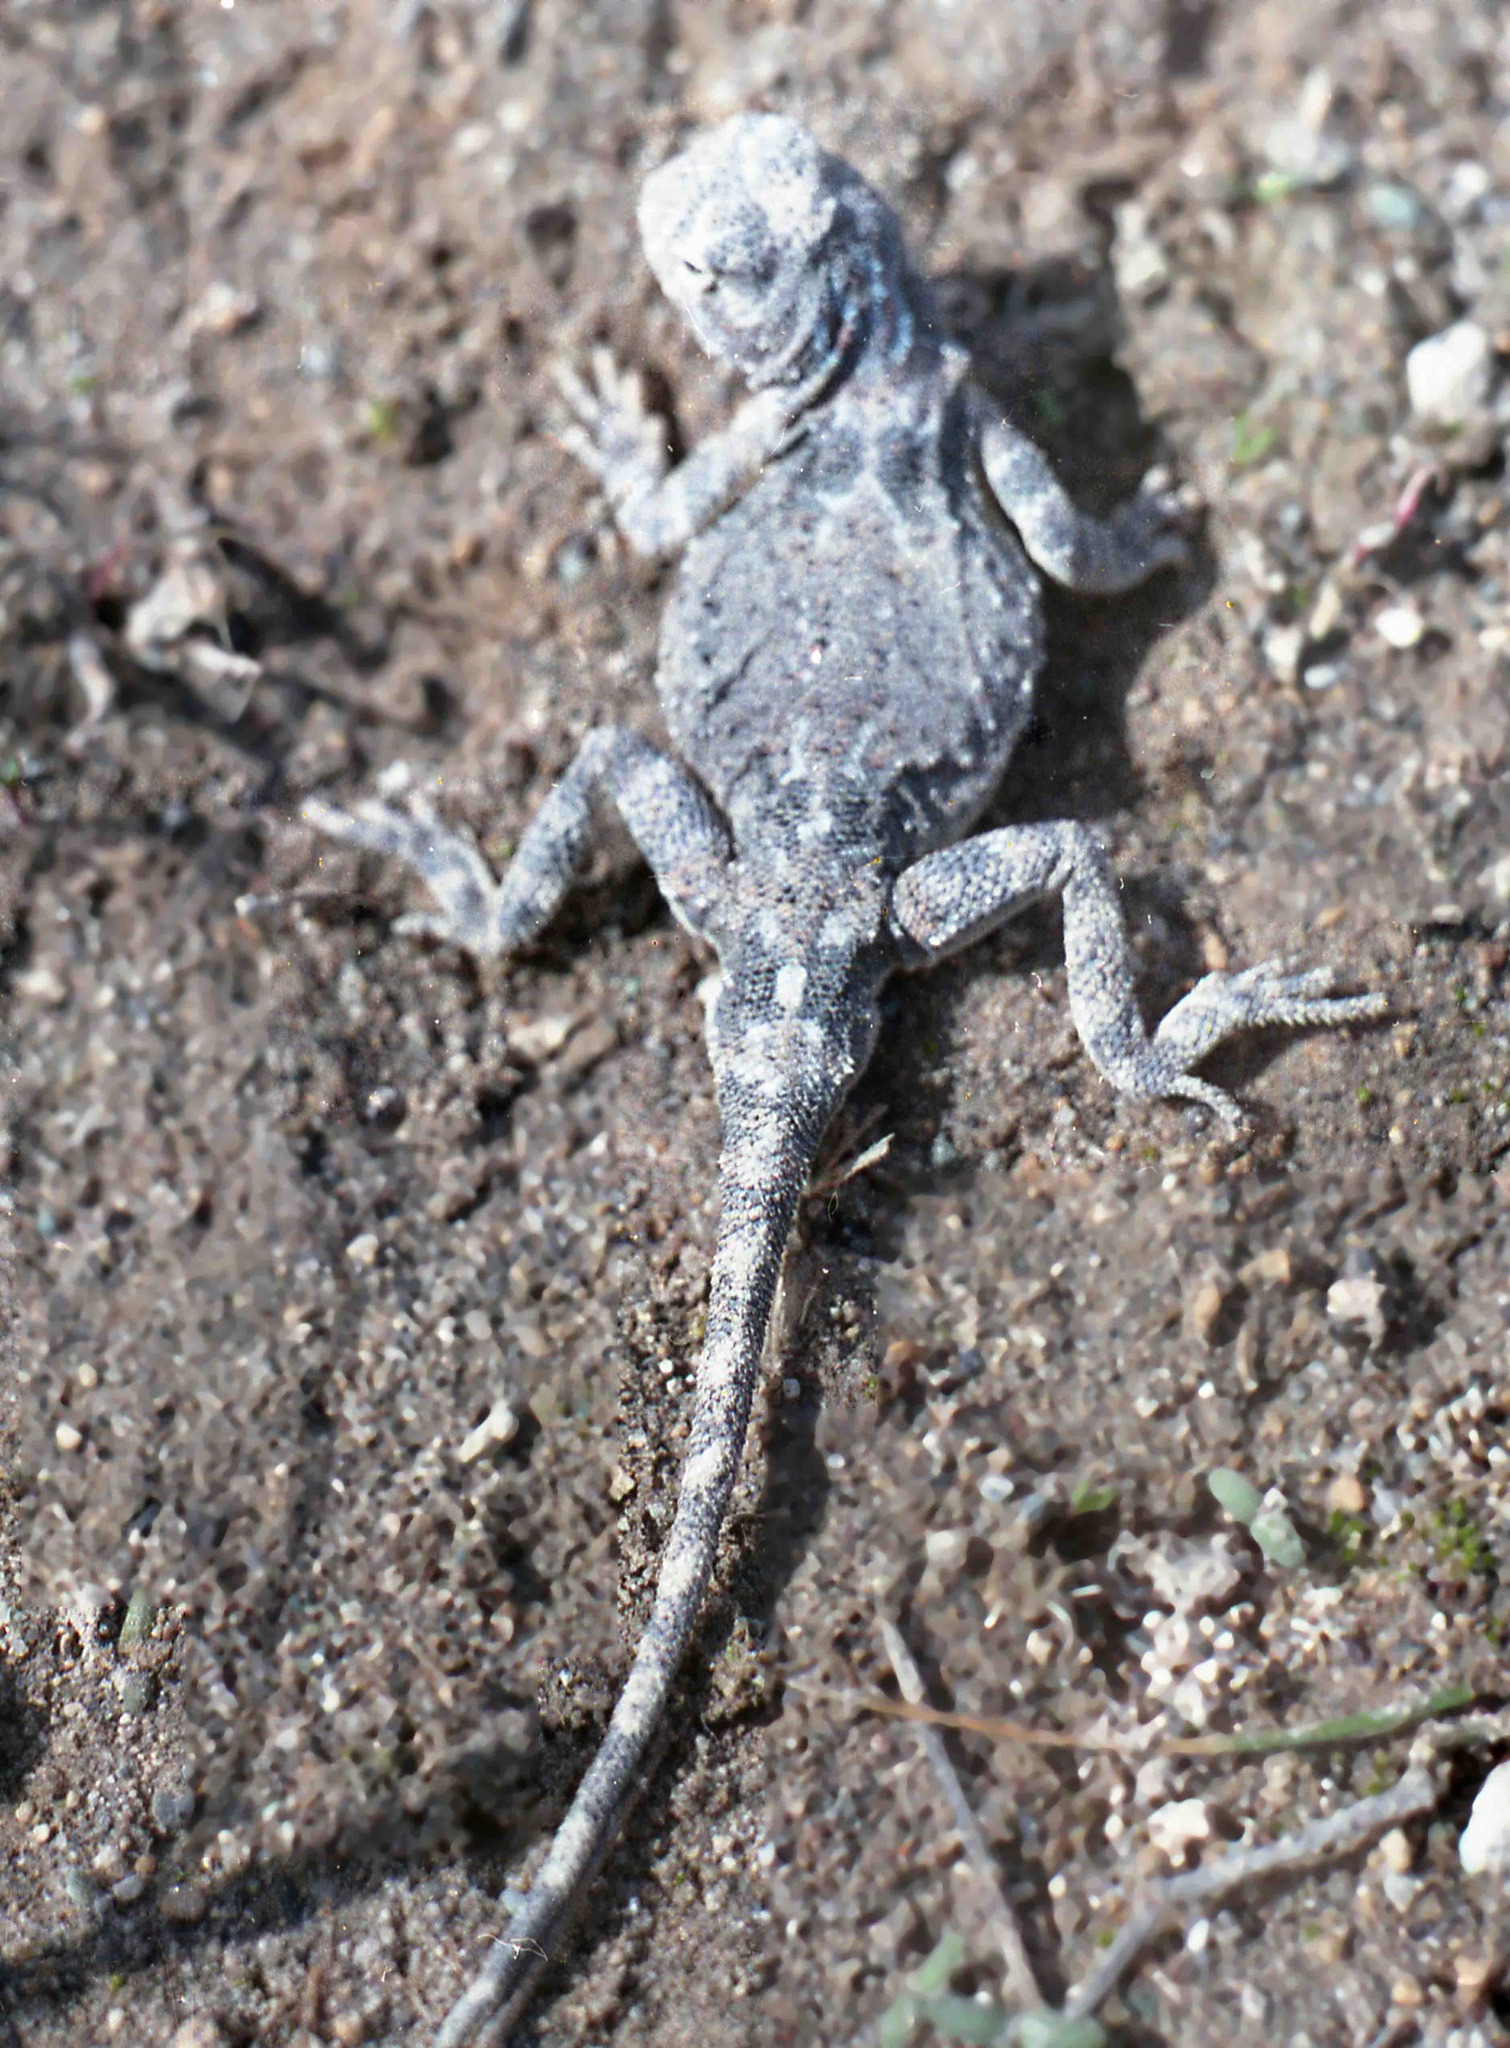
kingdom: Animalia
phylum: Chordata
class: Squamata
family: Agamidae
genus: Phrynocephalus
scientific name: Phrynocephalus horvathi
